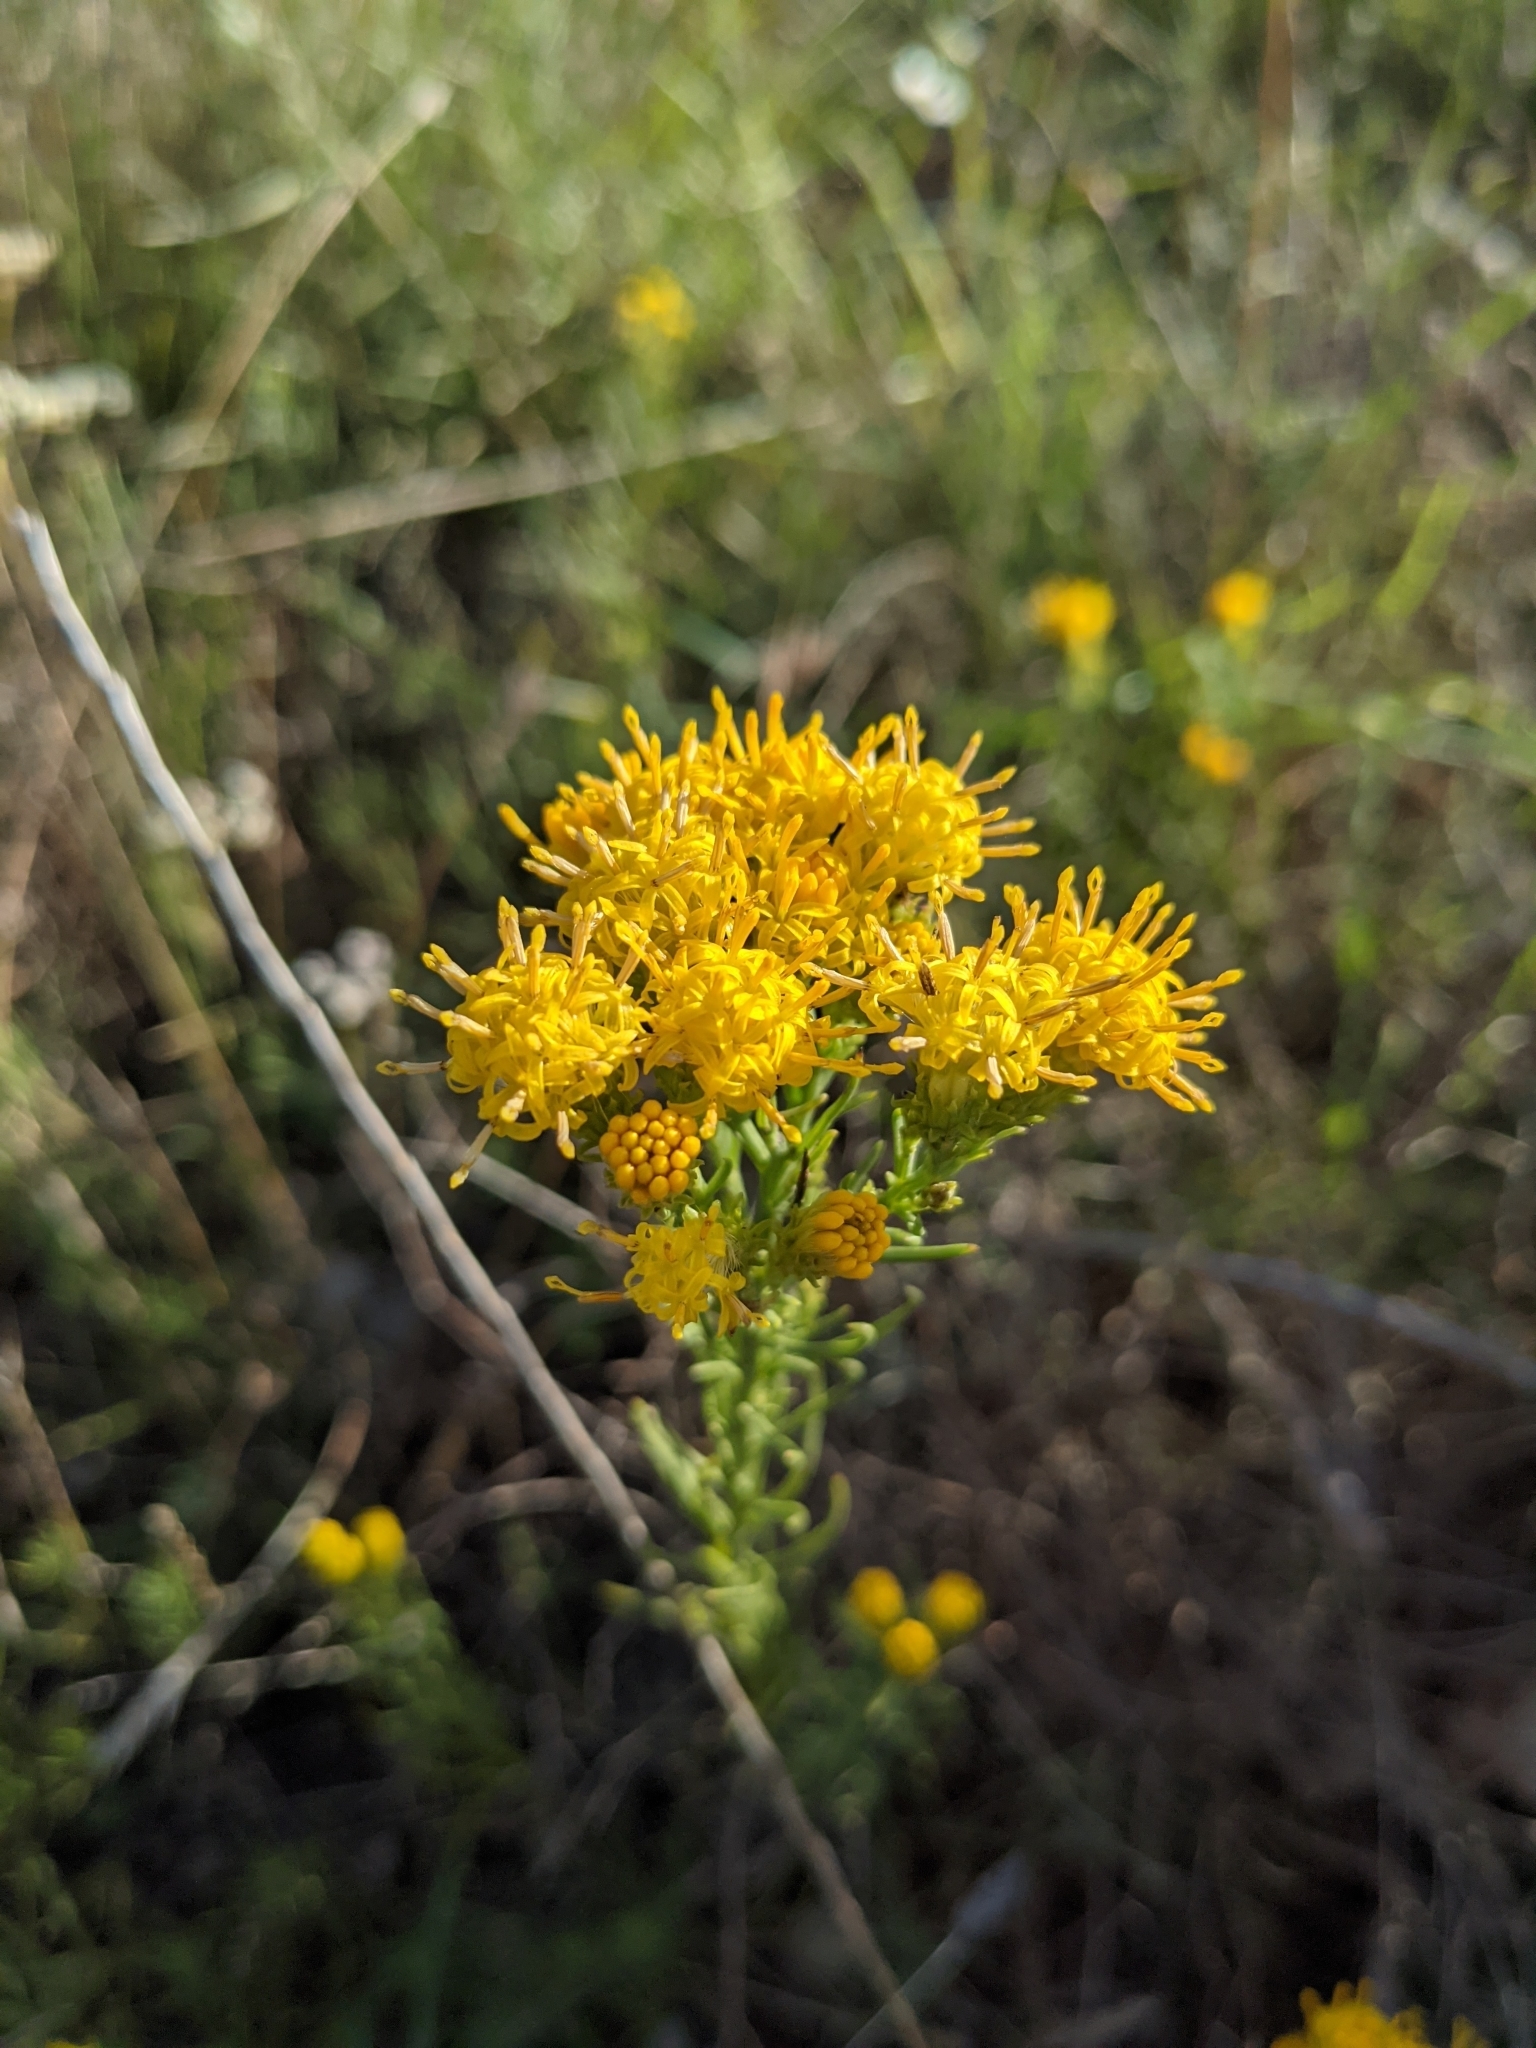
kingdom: Plantae
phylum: Tracheophyta
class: Magnoliopsida
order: Asterales
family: Asteraceae
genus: Galatella
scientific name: Galatella linosyris
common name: Goldilocks aster
